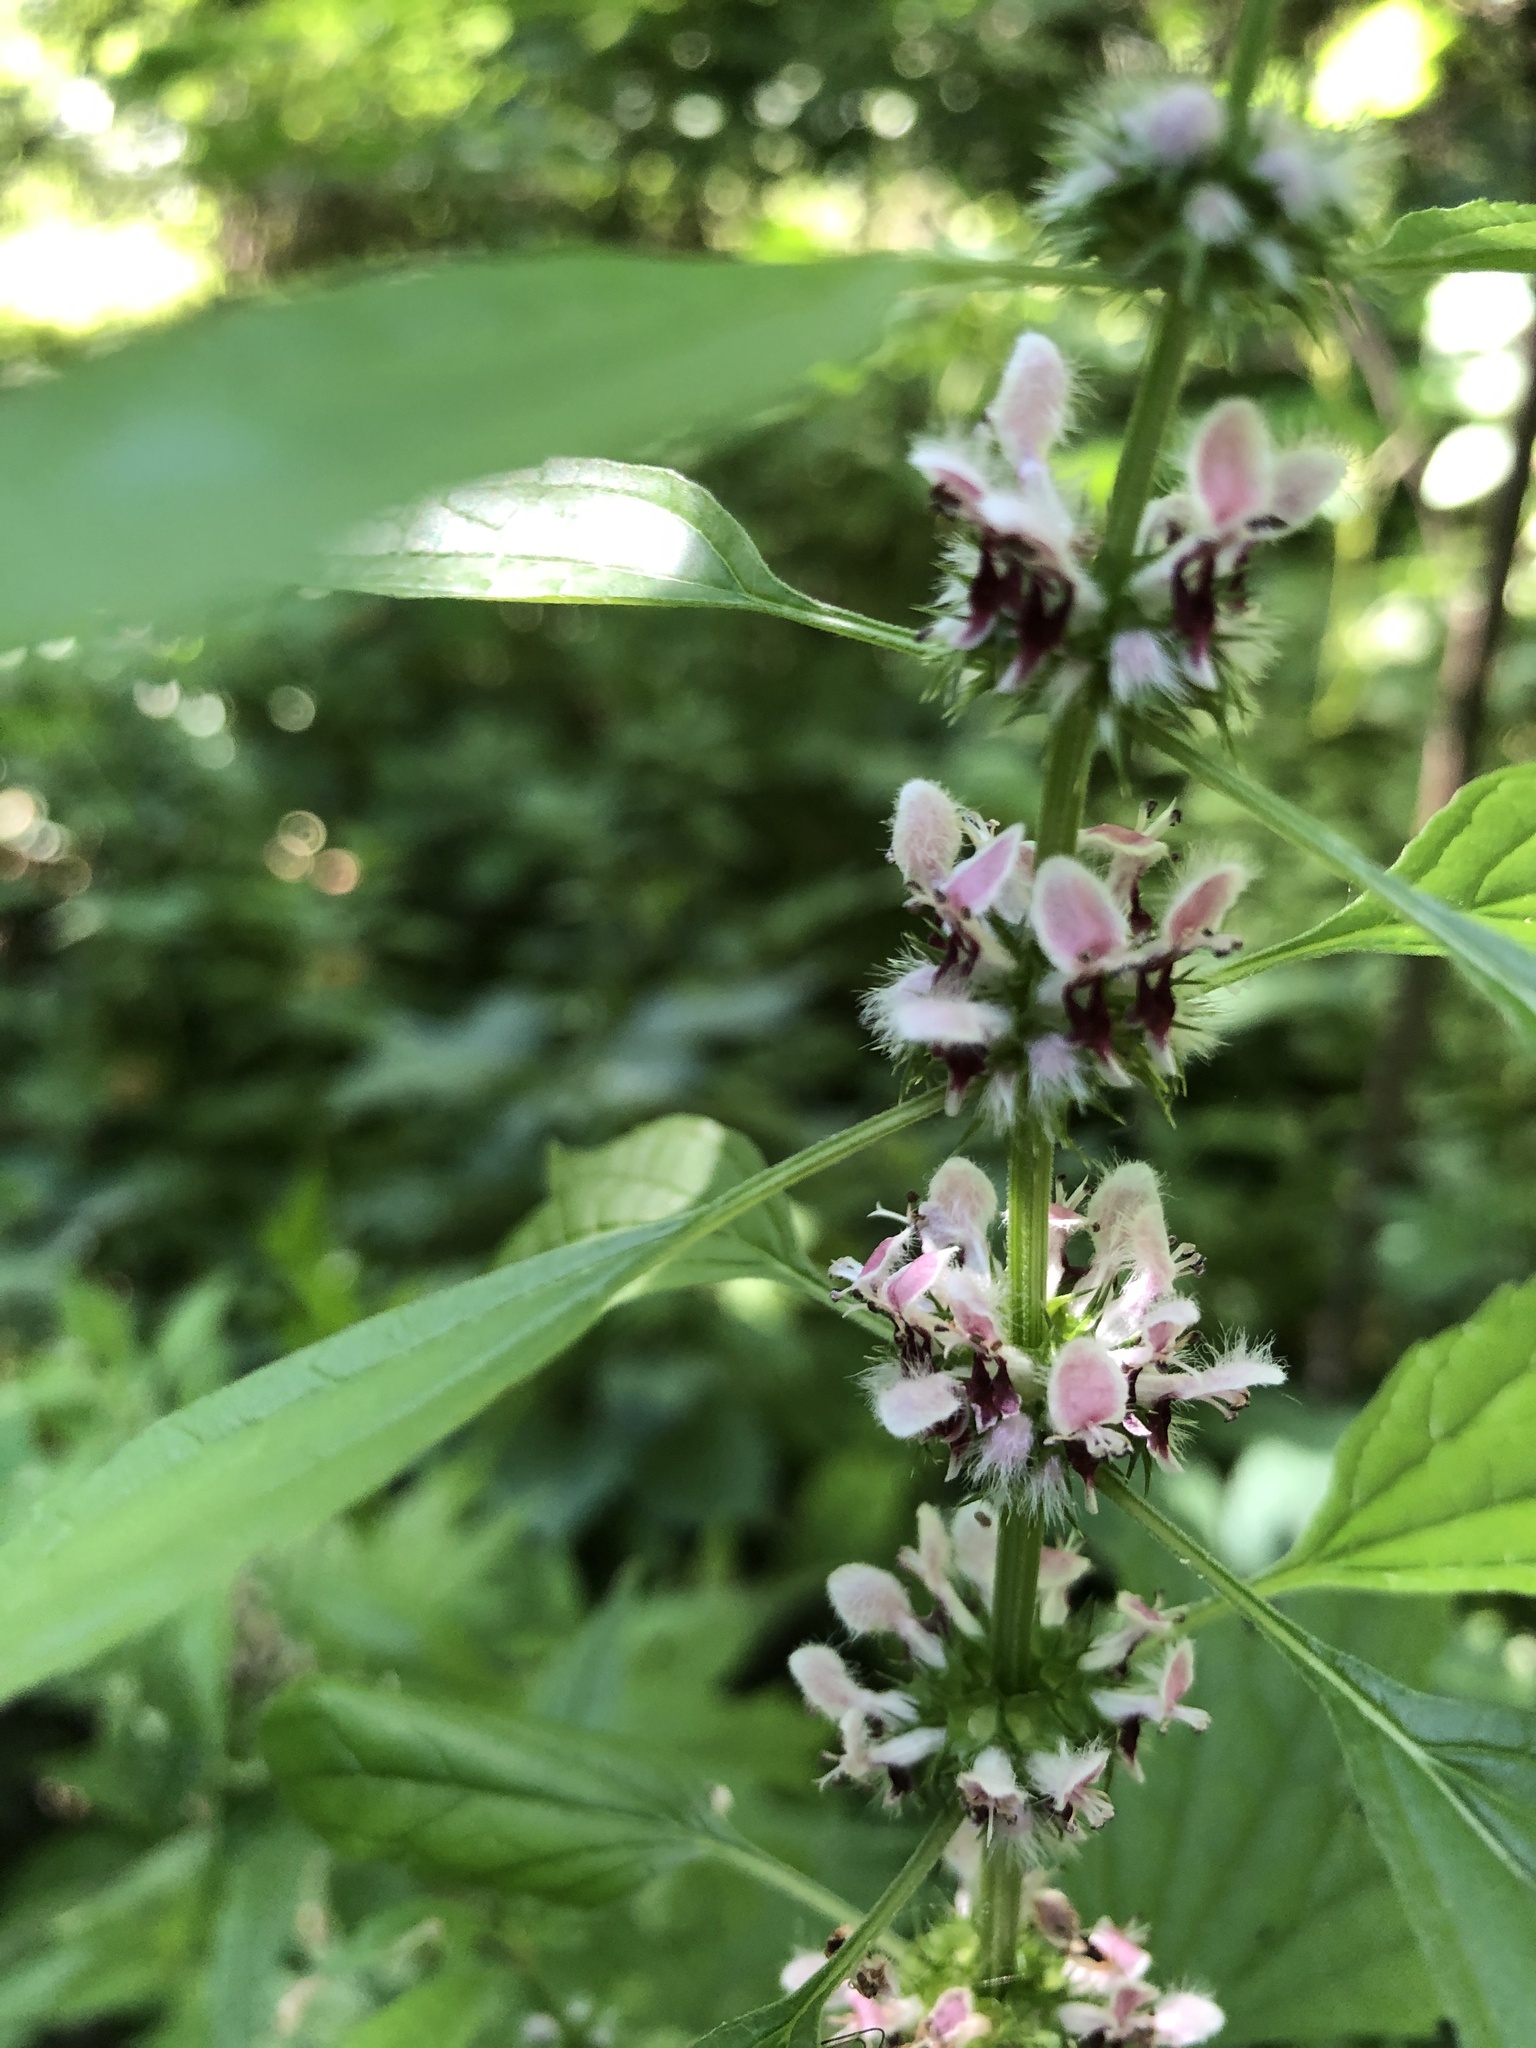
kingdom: Plantae
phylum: Tracheophyta
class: Magnoliopsida
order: Lamiales
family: Lamiaceae
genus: Leonurus
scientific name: Leonurus cardiaca
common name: Motherwort
